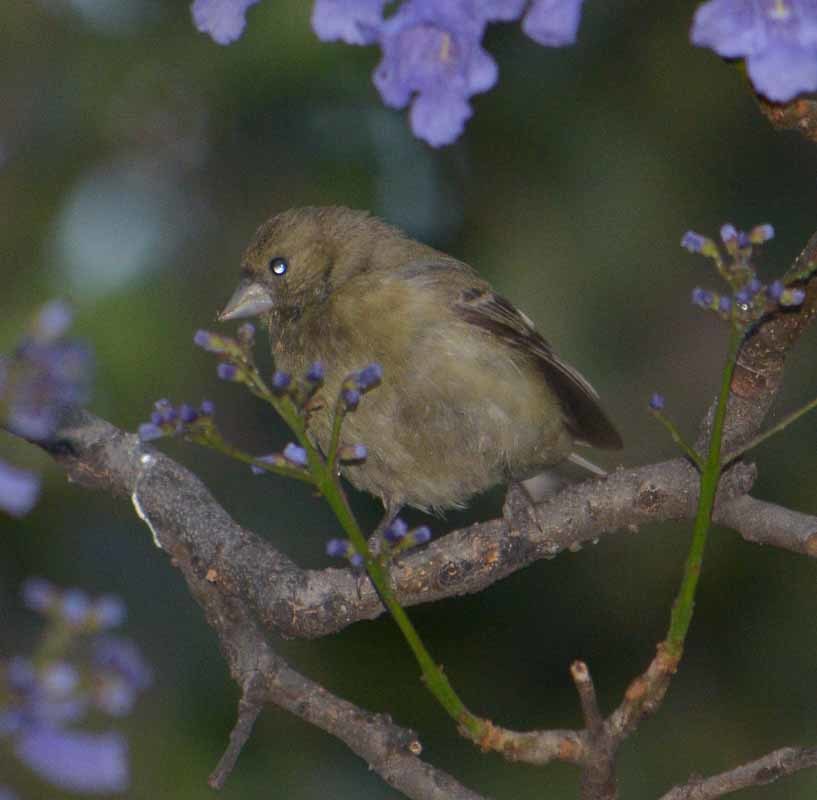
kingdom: Animalia
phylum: Chordata
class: Aves
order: Passeriformes
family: Fringillidae
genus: Spinus
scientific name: Spinus psaltria
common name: Lesser goldfinch
